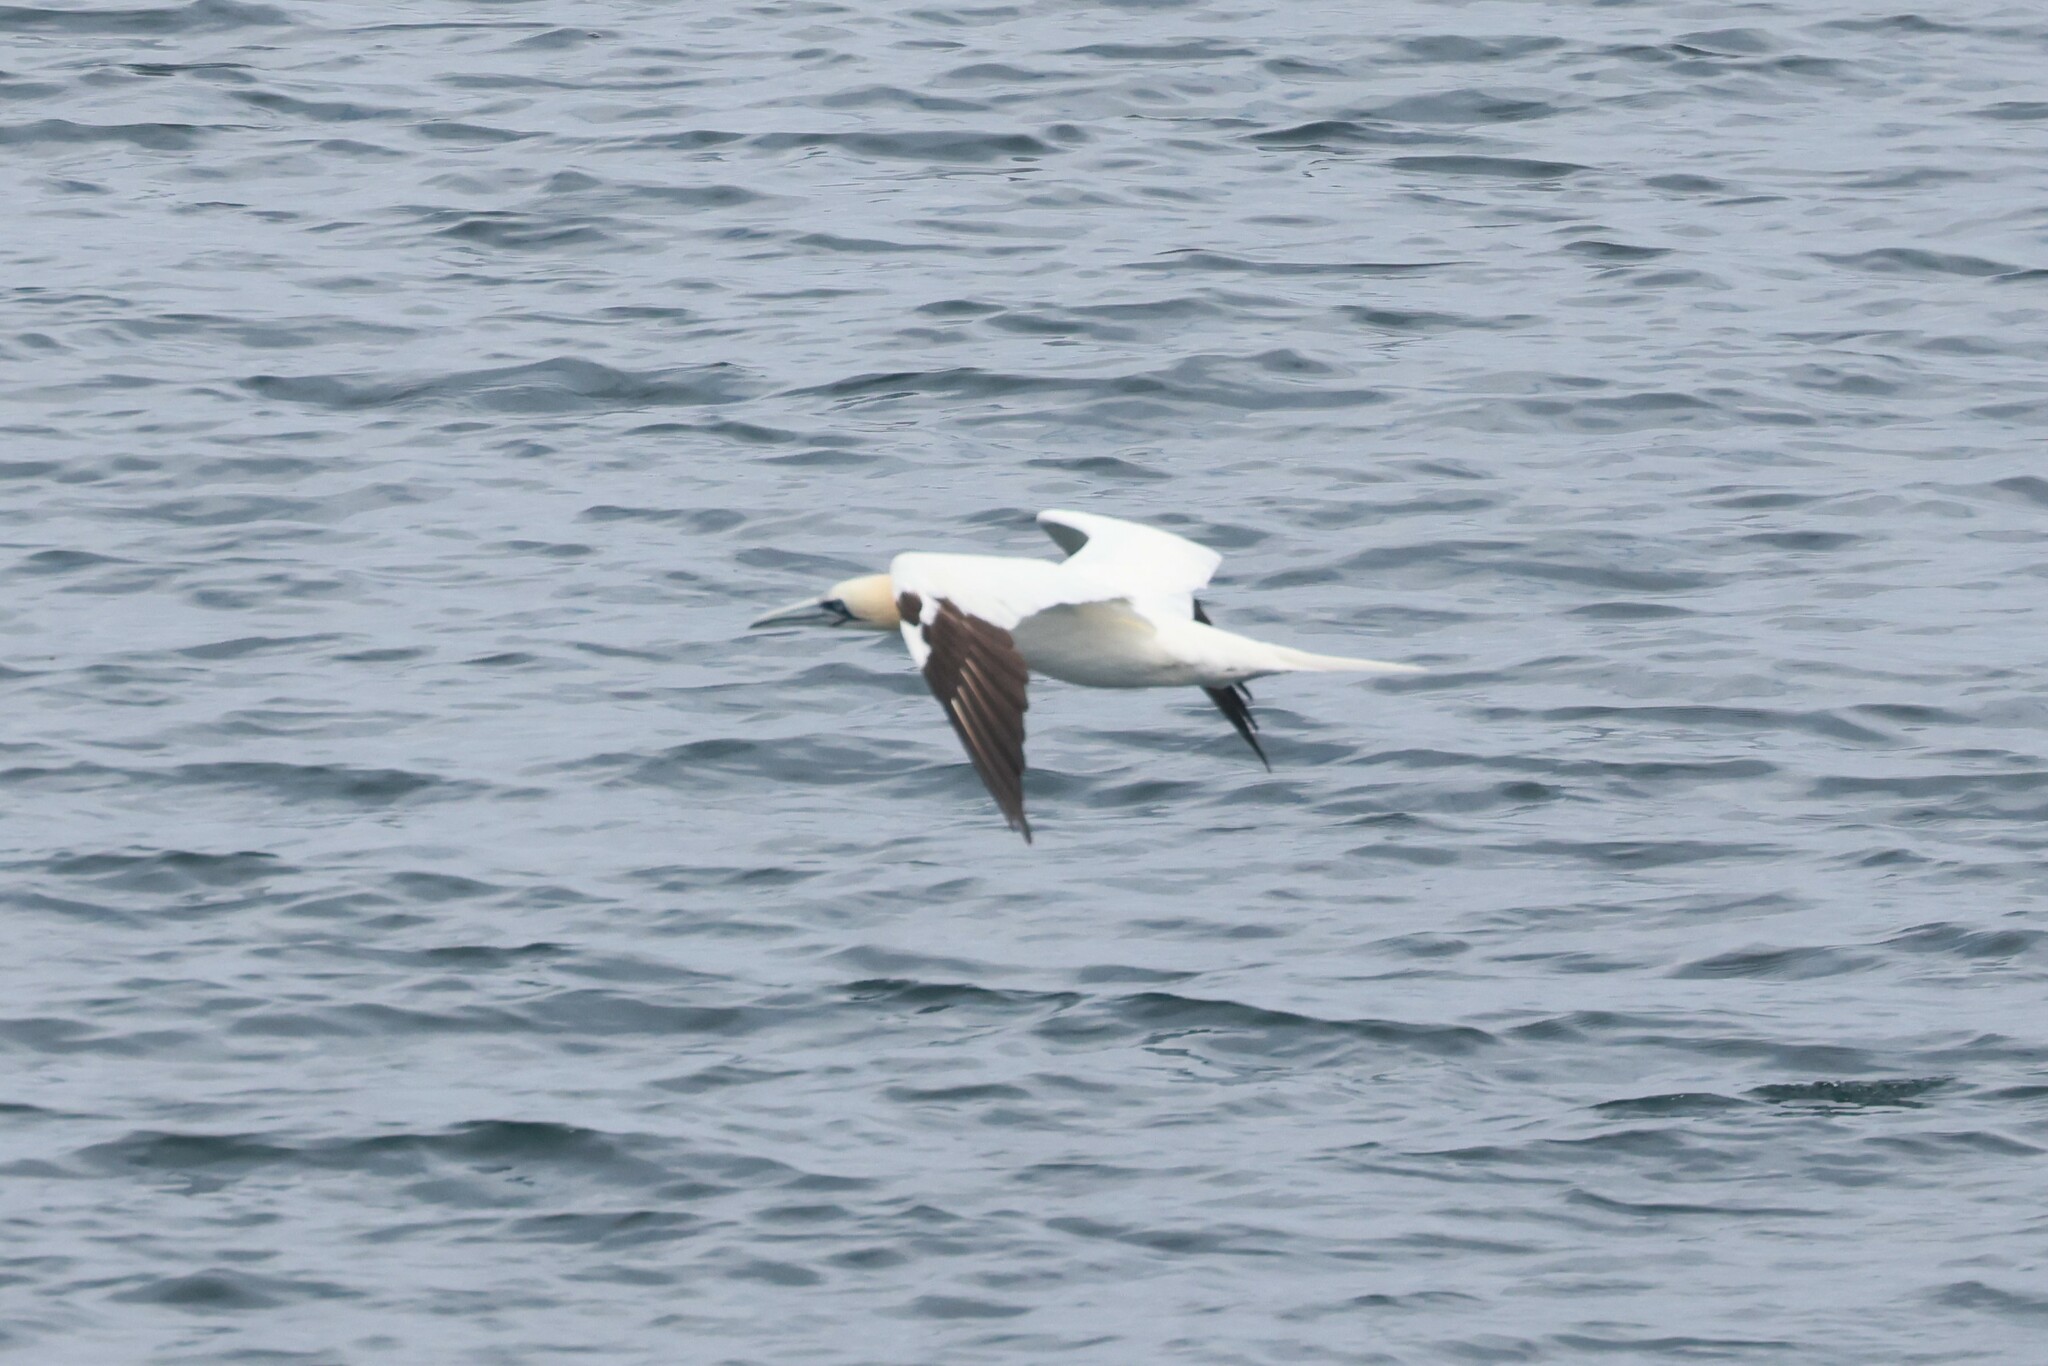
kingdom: Animalia
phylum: Chordata
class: Aves
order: Suliformes
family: Sulidae
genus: Morus
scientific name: Morus bassanus
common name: Northern gannet
